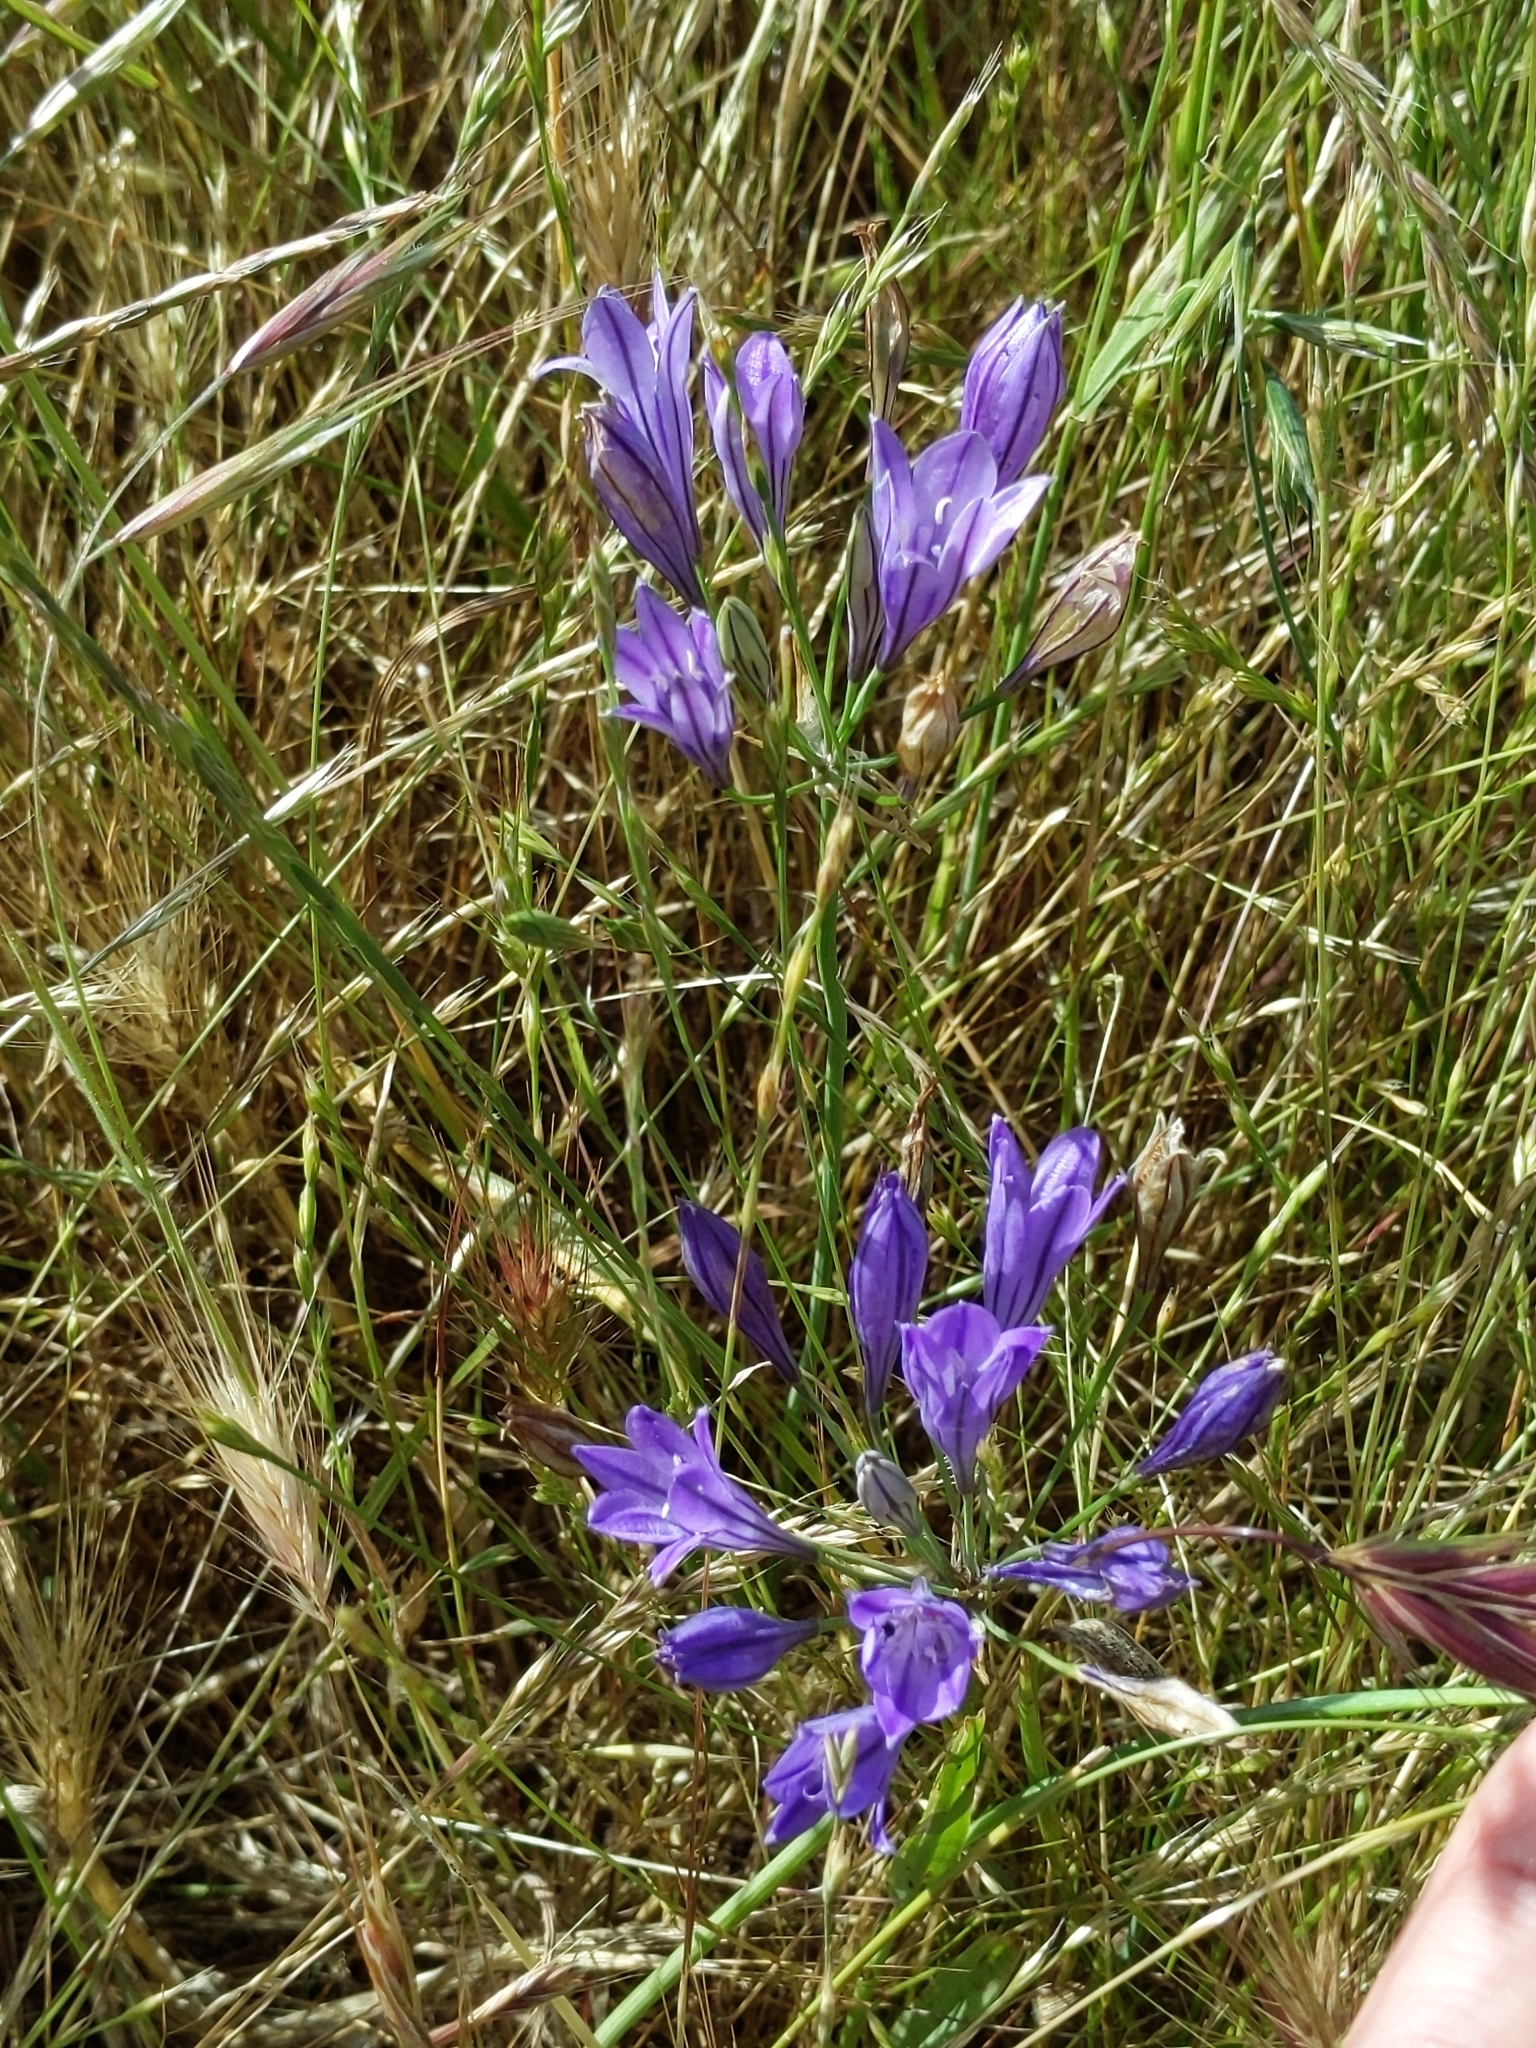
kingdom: Plantae
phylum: Tracheophyta
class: Liliopsida
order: Asparagales
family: Asparagaceae
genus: Triteleia
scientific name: Triteleia laxa
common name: Triplet-lily
